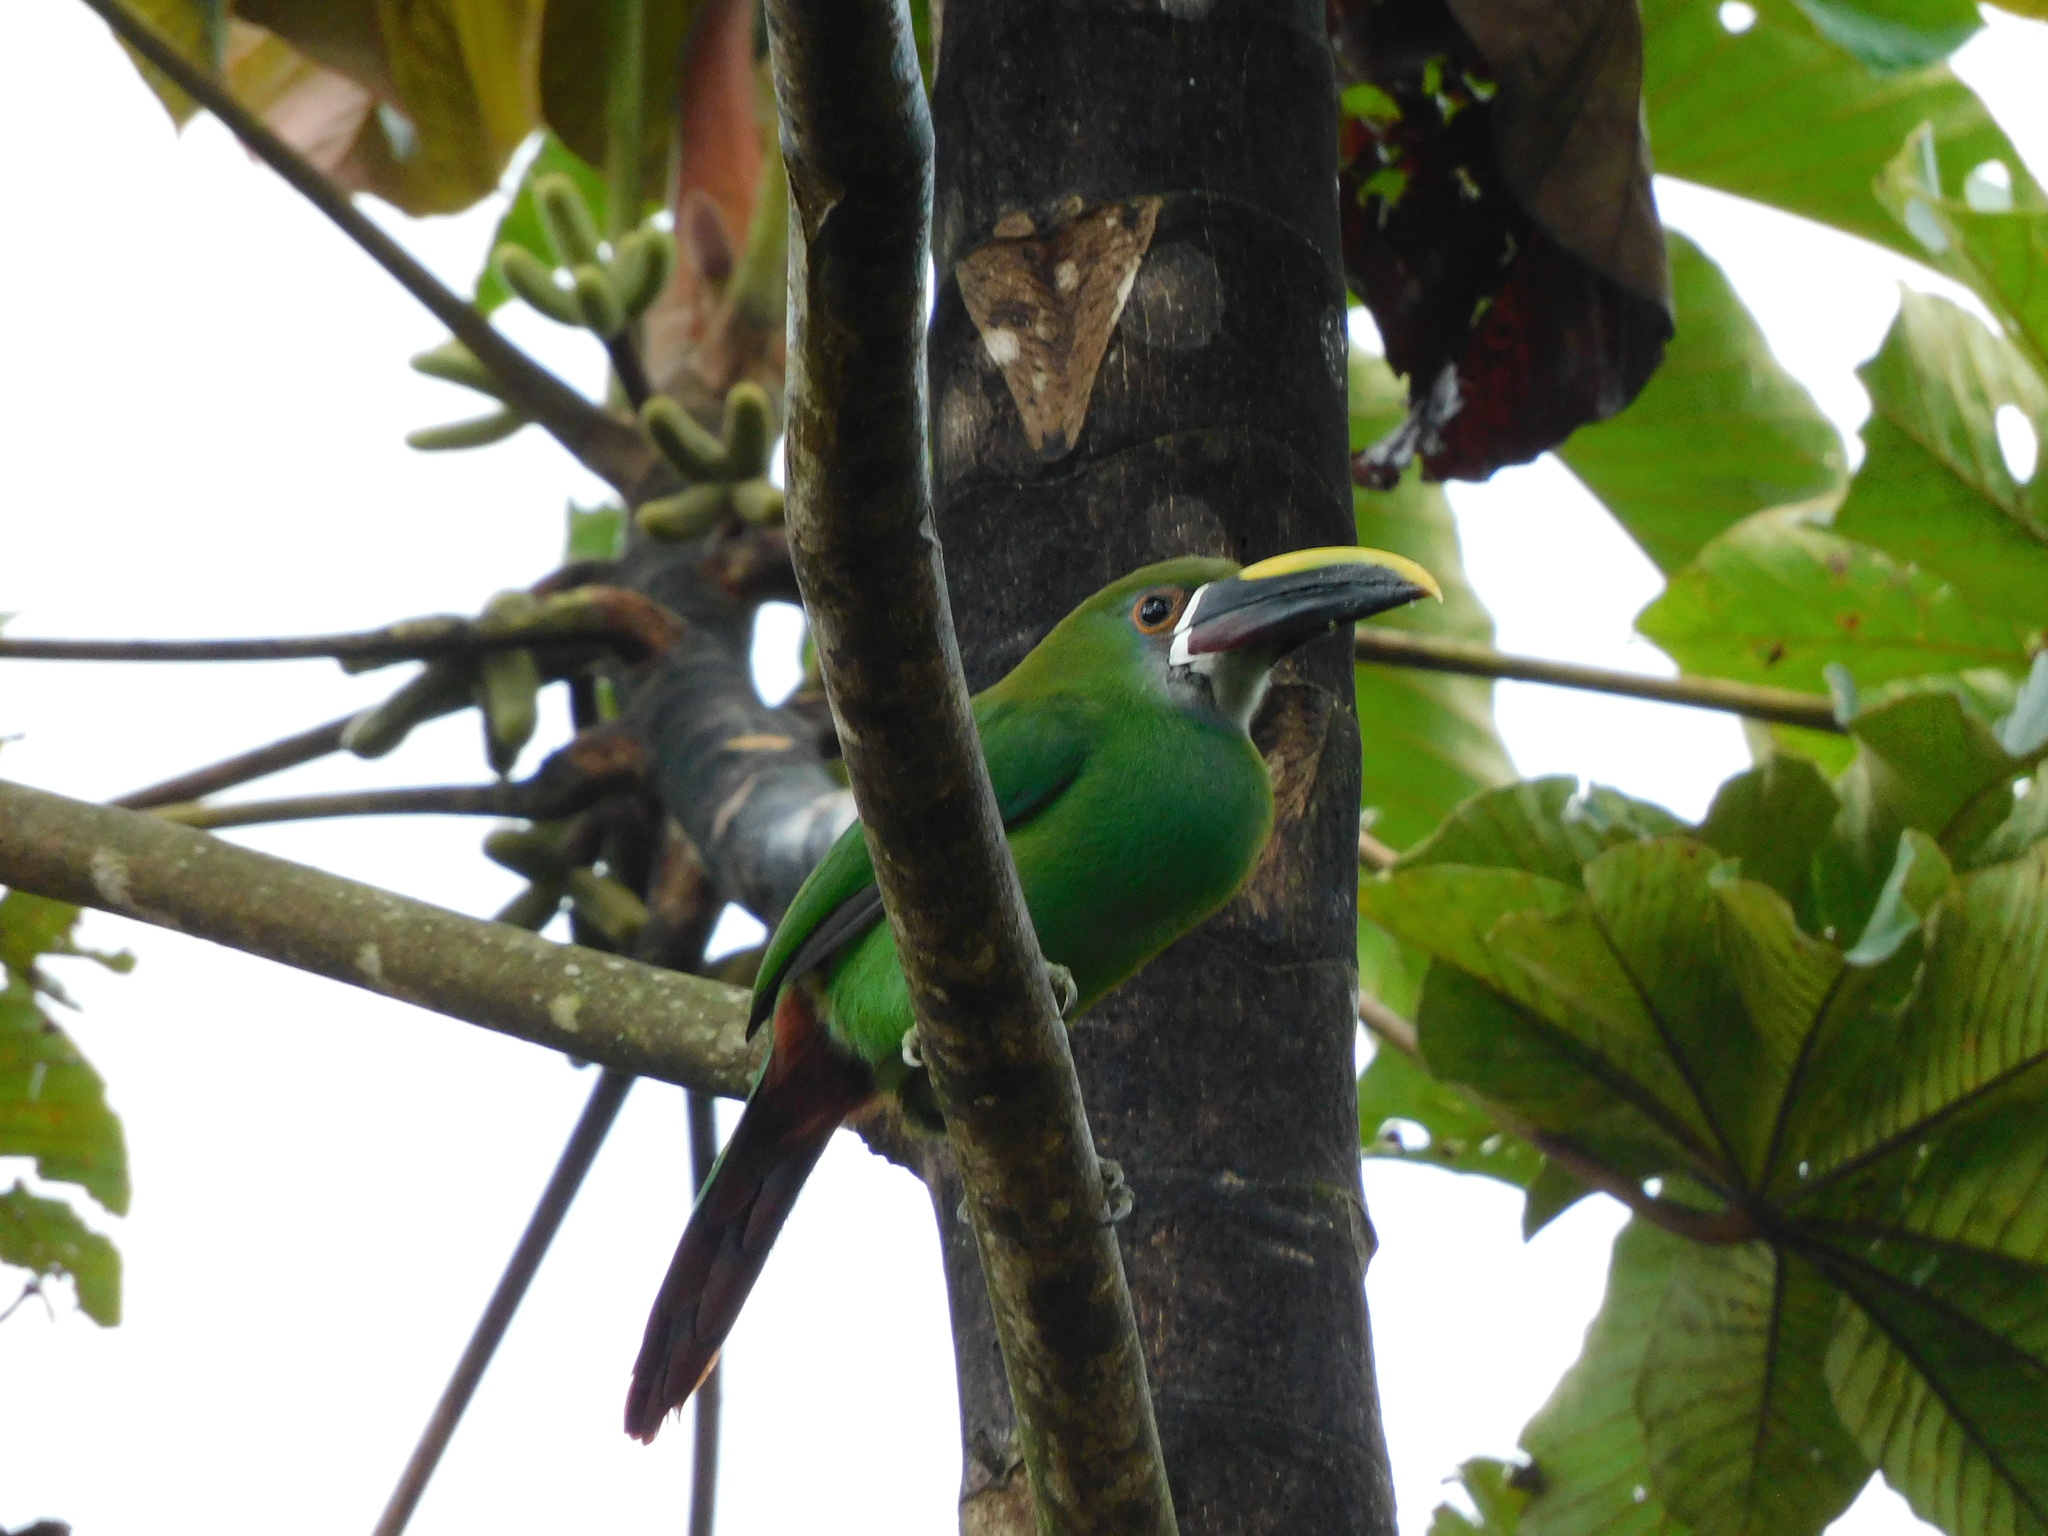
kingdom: Animalia
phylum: Chordata
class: Aves
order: Piciformes
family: Ramphastidae
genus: Aulacorhynchus
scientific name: Aulacorhynchus albivitta
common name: White-throated toucanet
